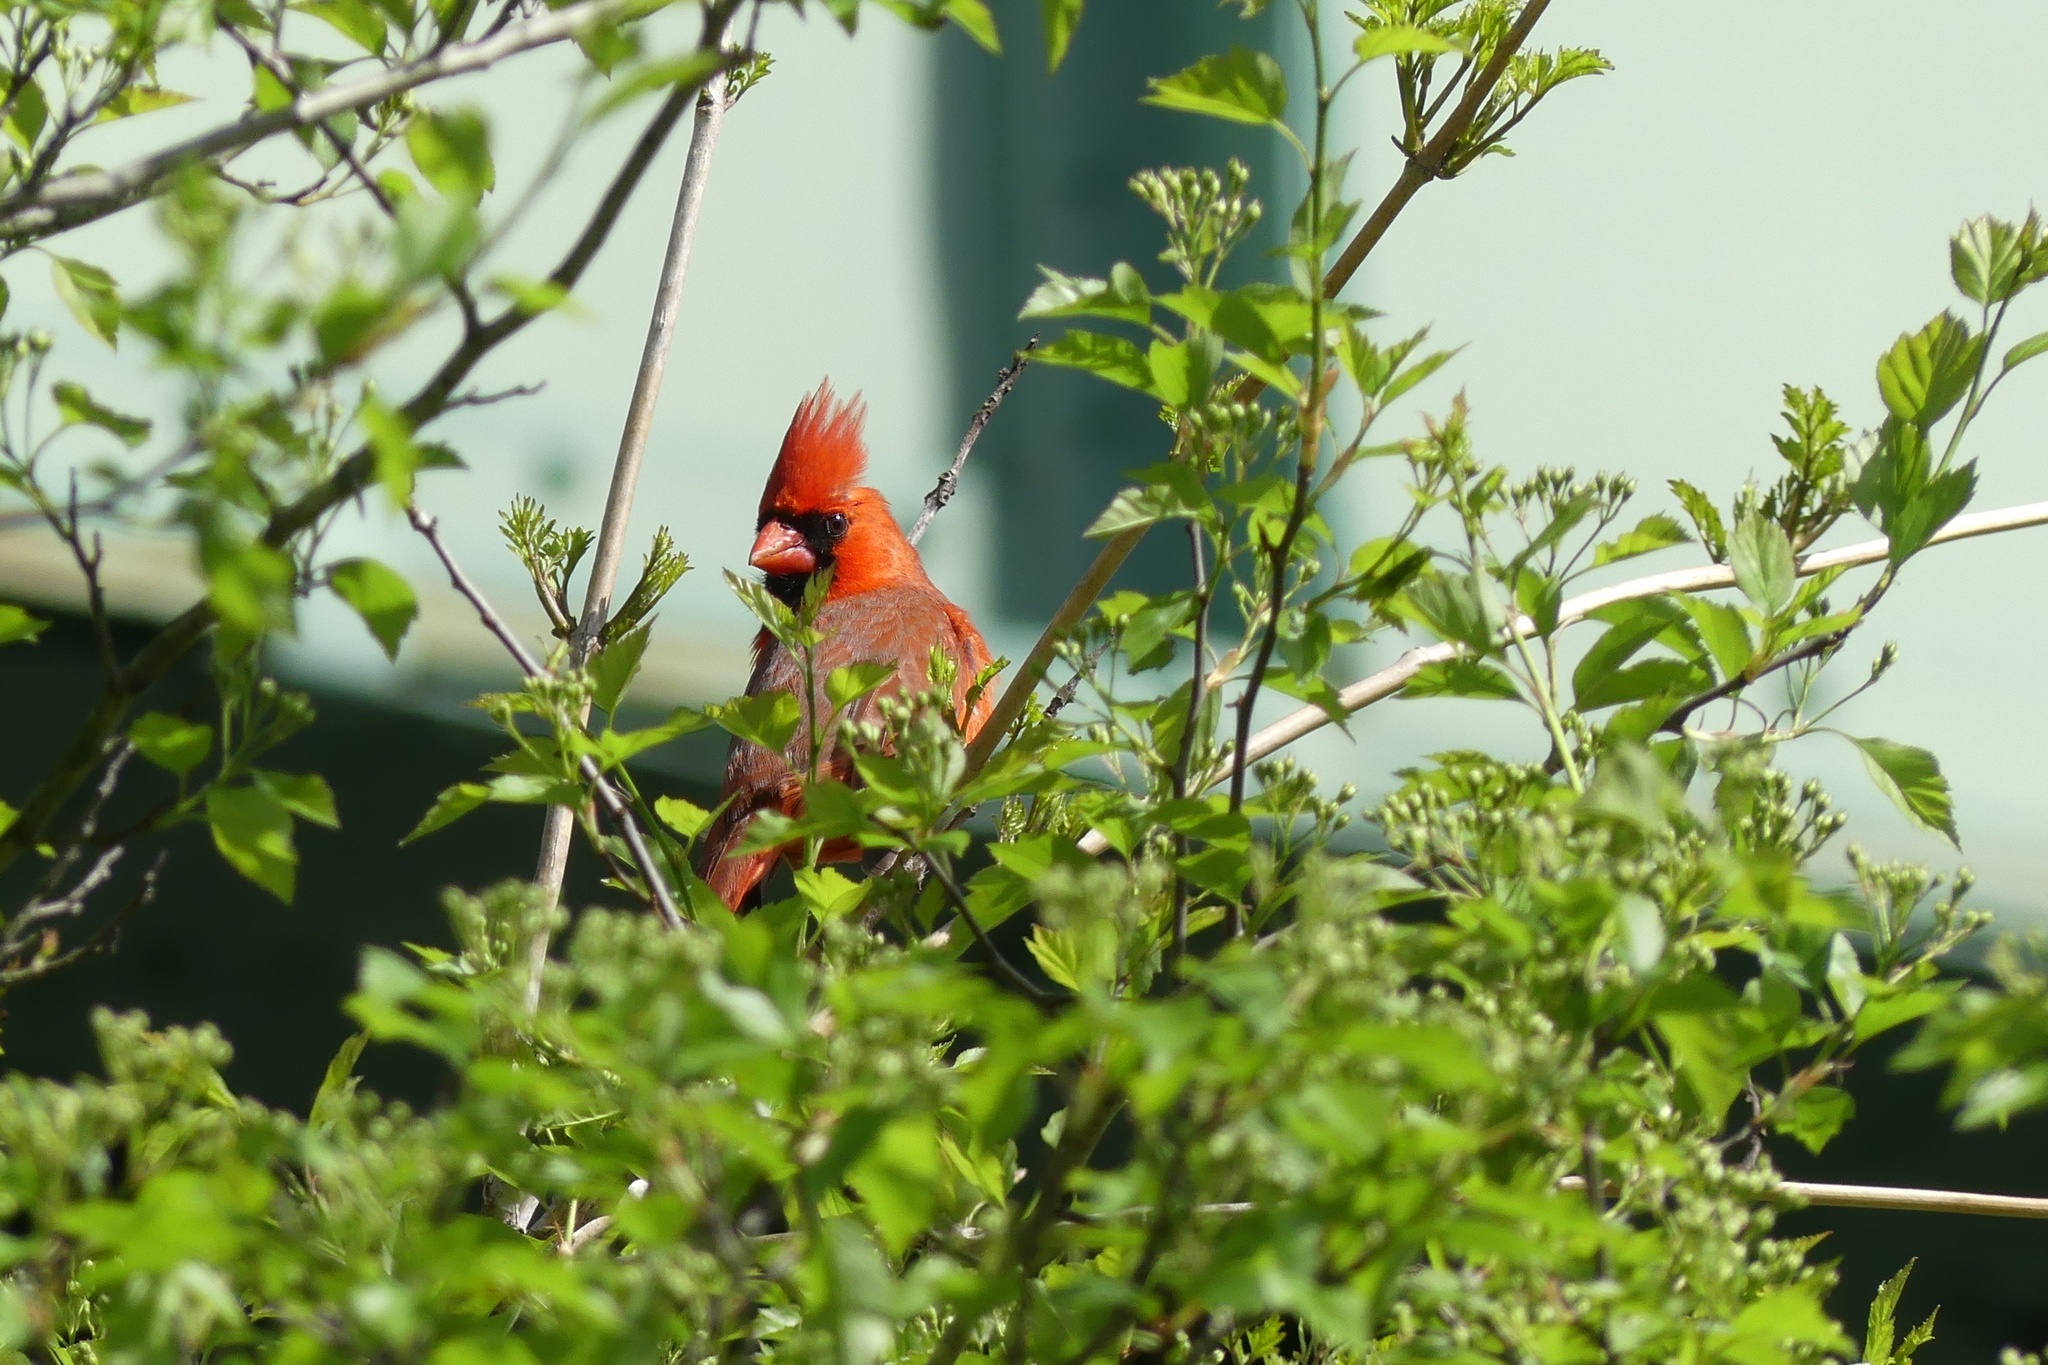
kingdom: Animalia
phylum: Chordata
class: Aves
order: Passeriformes
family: Cardinalidae
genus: Cardinalis
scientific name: Cardinalis cardinalis
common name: Northern cardinal
